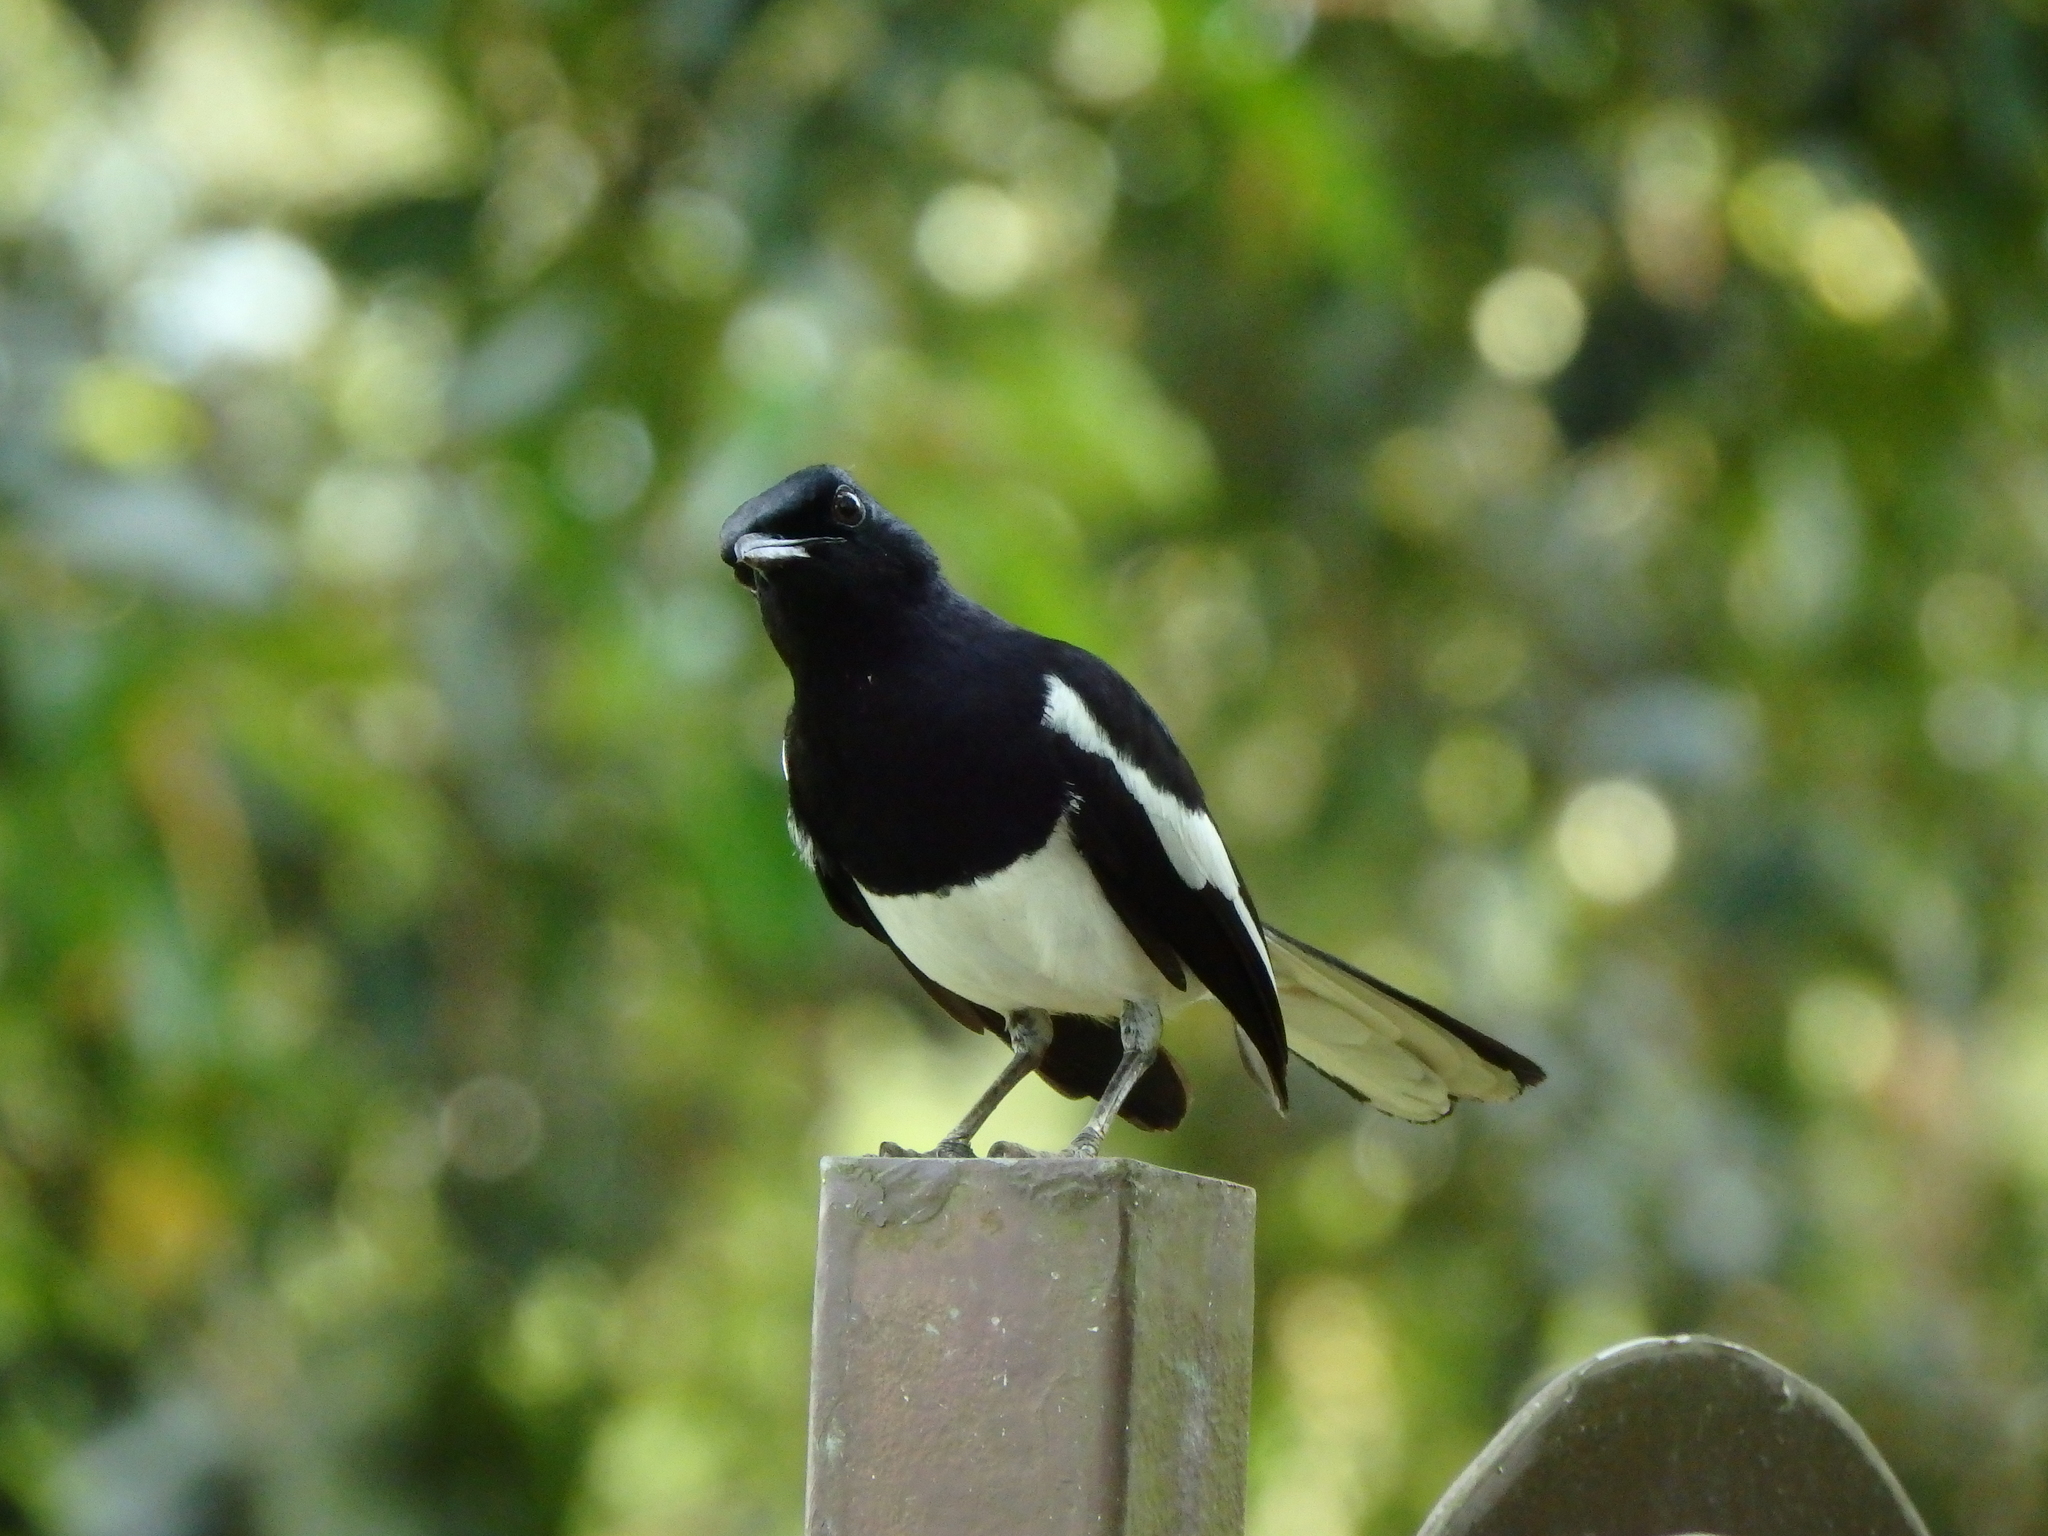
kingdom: Animalia
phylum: Chordata
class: Aves
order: Passeriformes
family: Muscicapidae
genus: Copsychus
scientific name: Copsychus saularis
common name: Oriental magpie-robin
